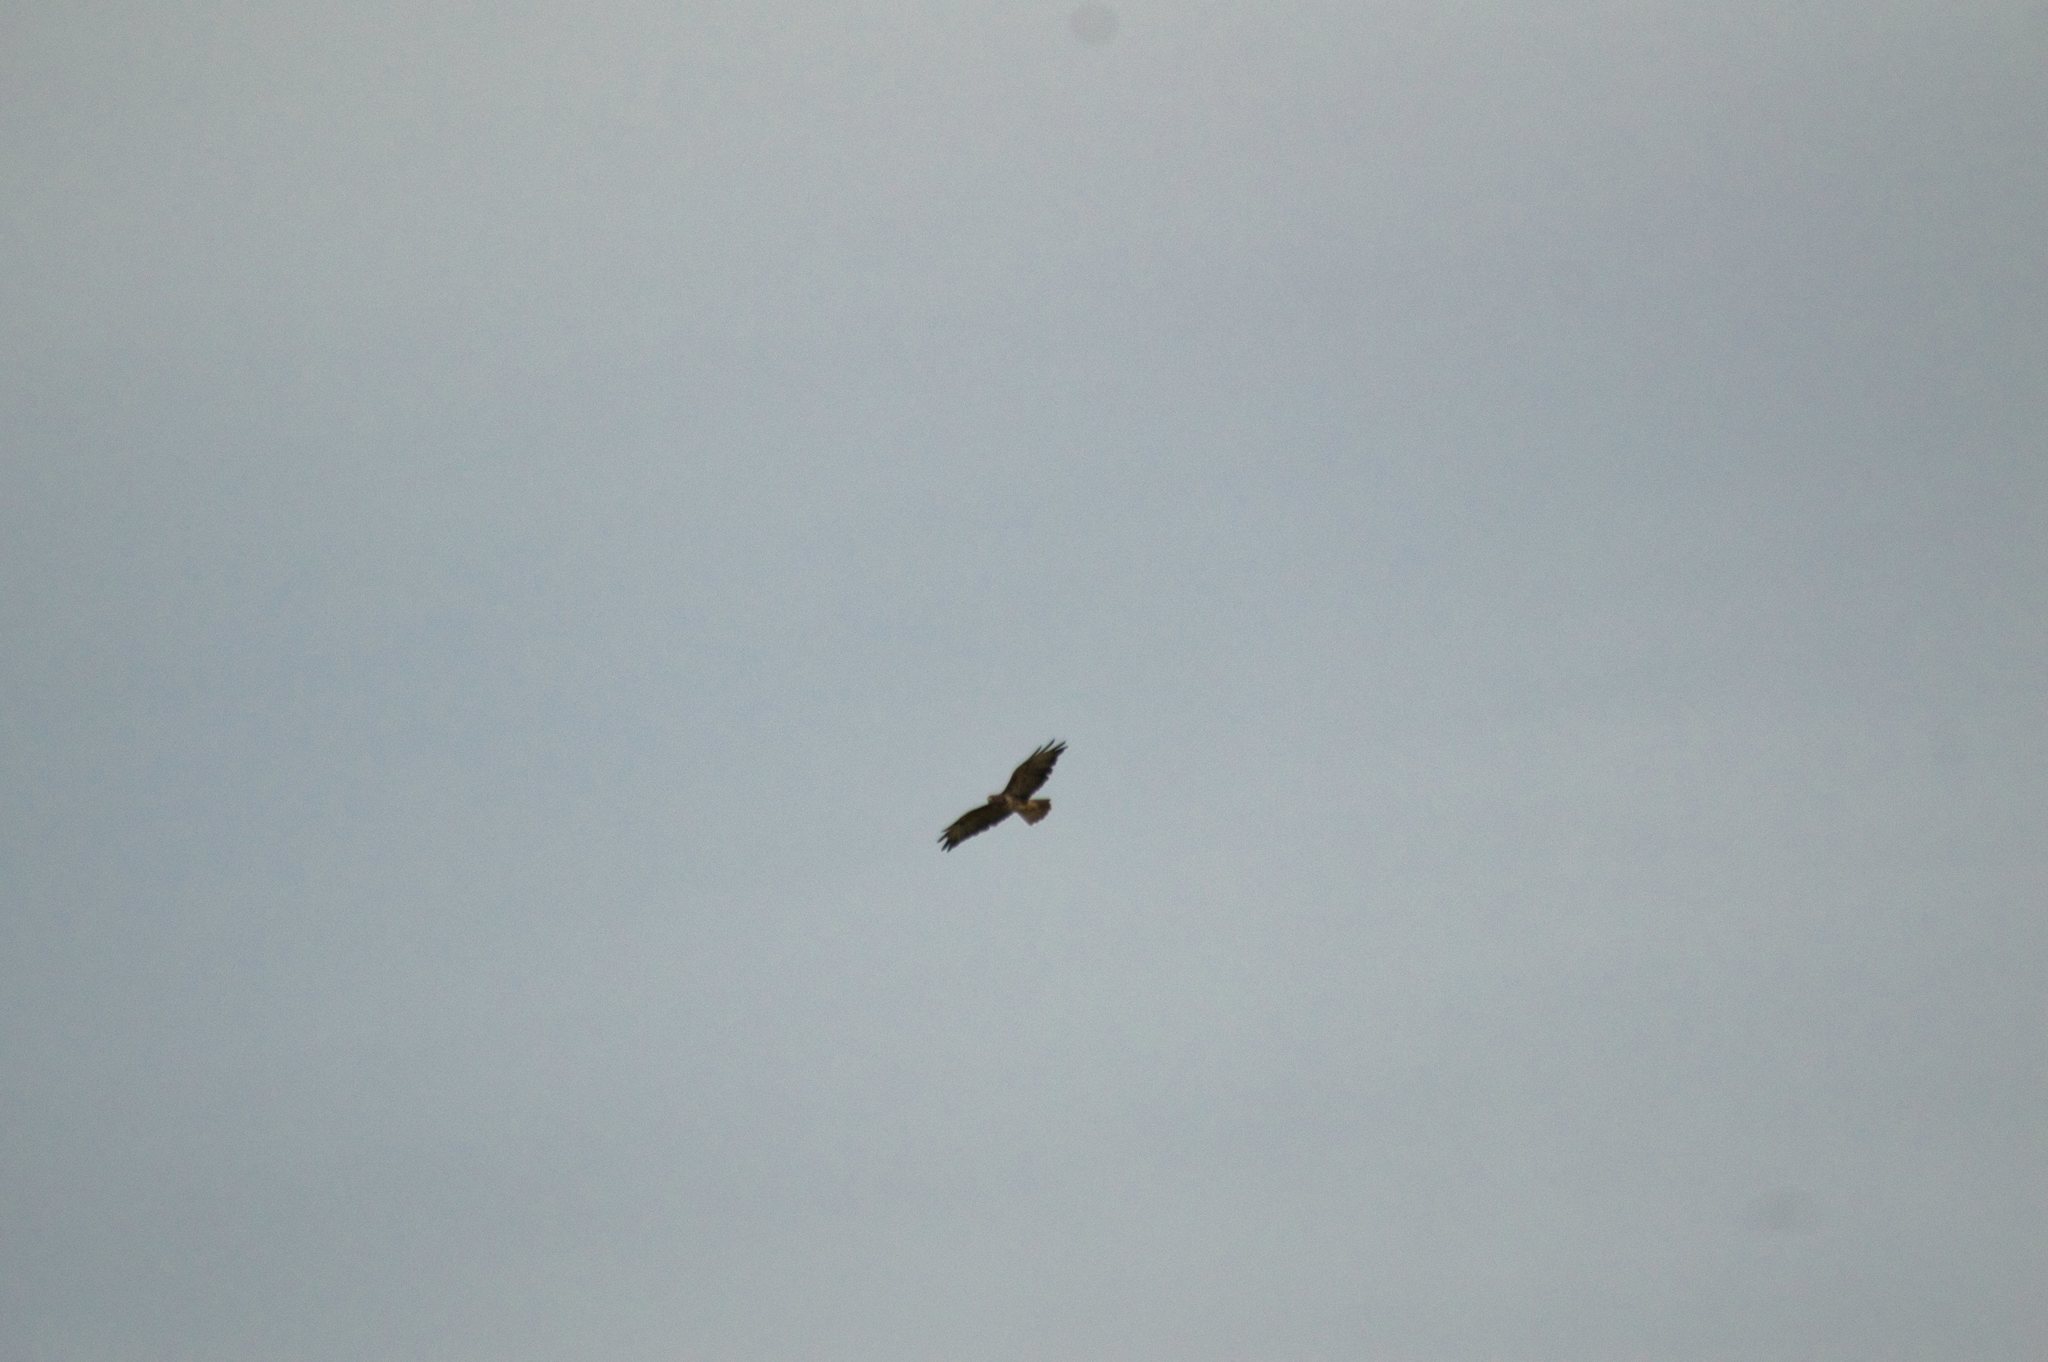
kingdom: Animalia
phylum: Chordata
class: Aves
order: Accipitriformes
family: Accipitridae
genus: Buteo
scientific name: Buteo buteo
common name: Common buzzard
